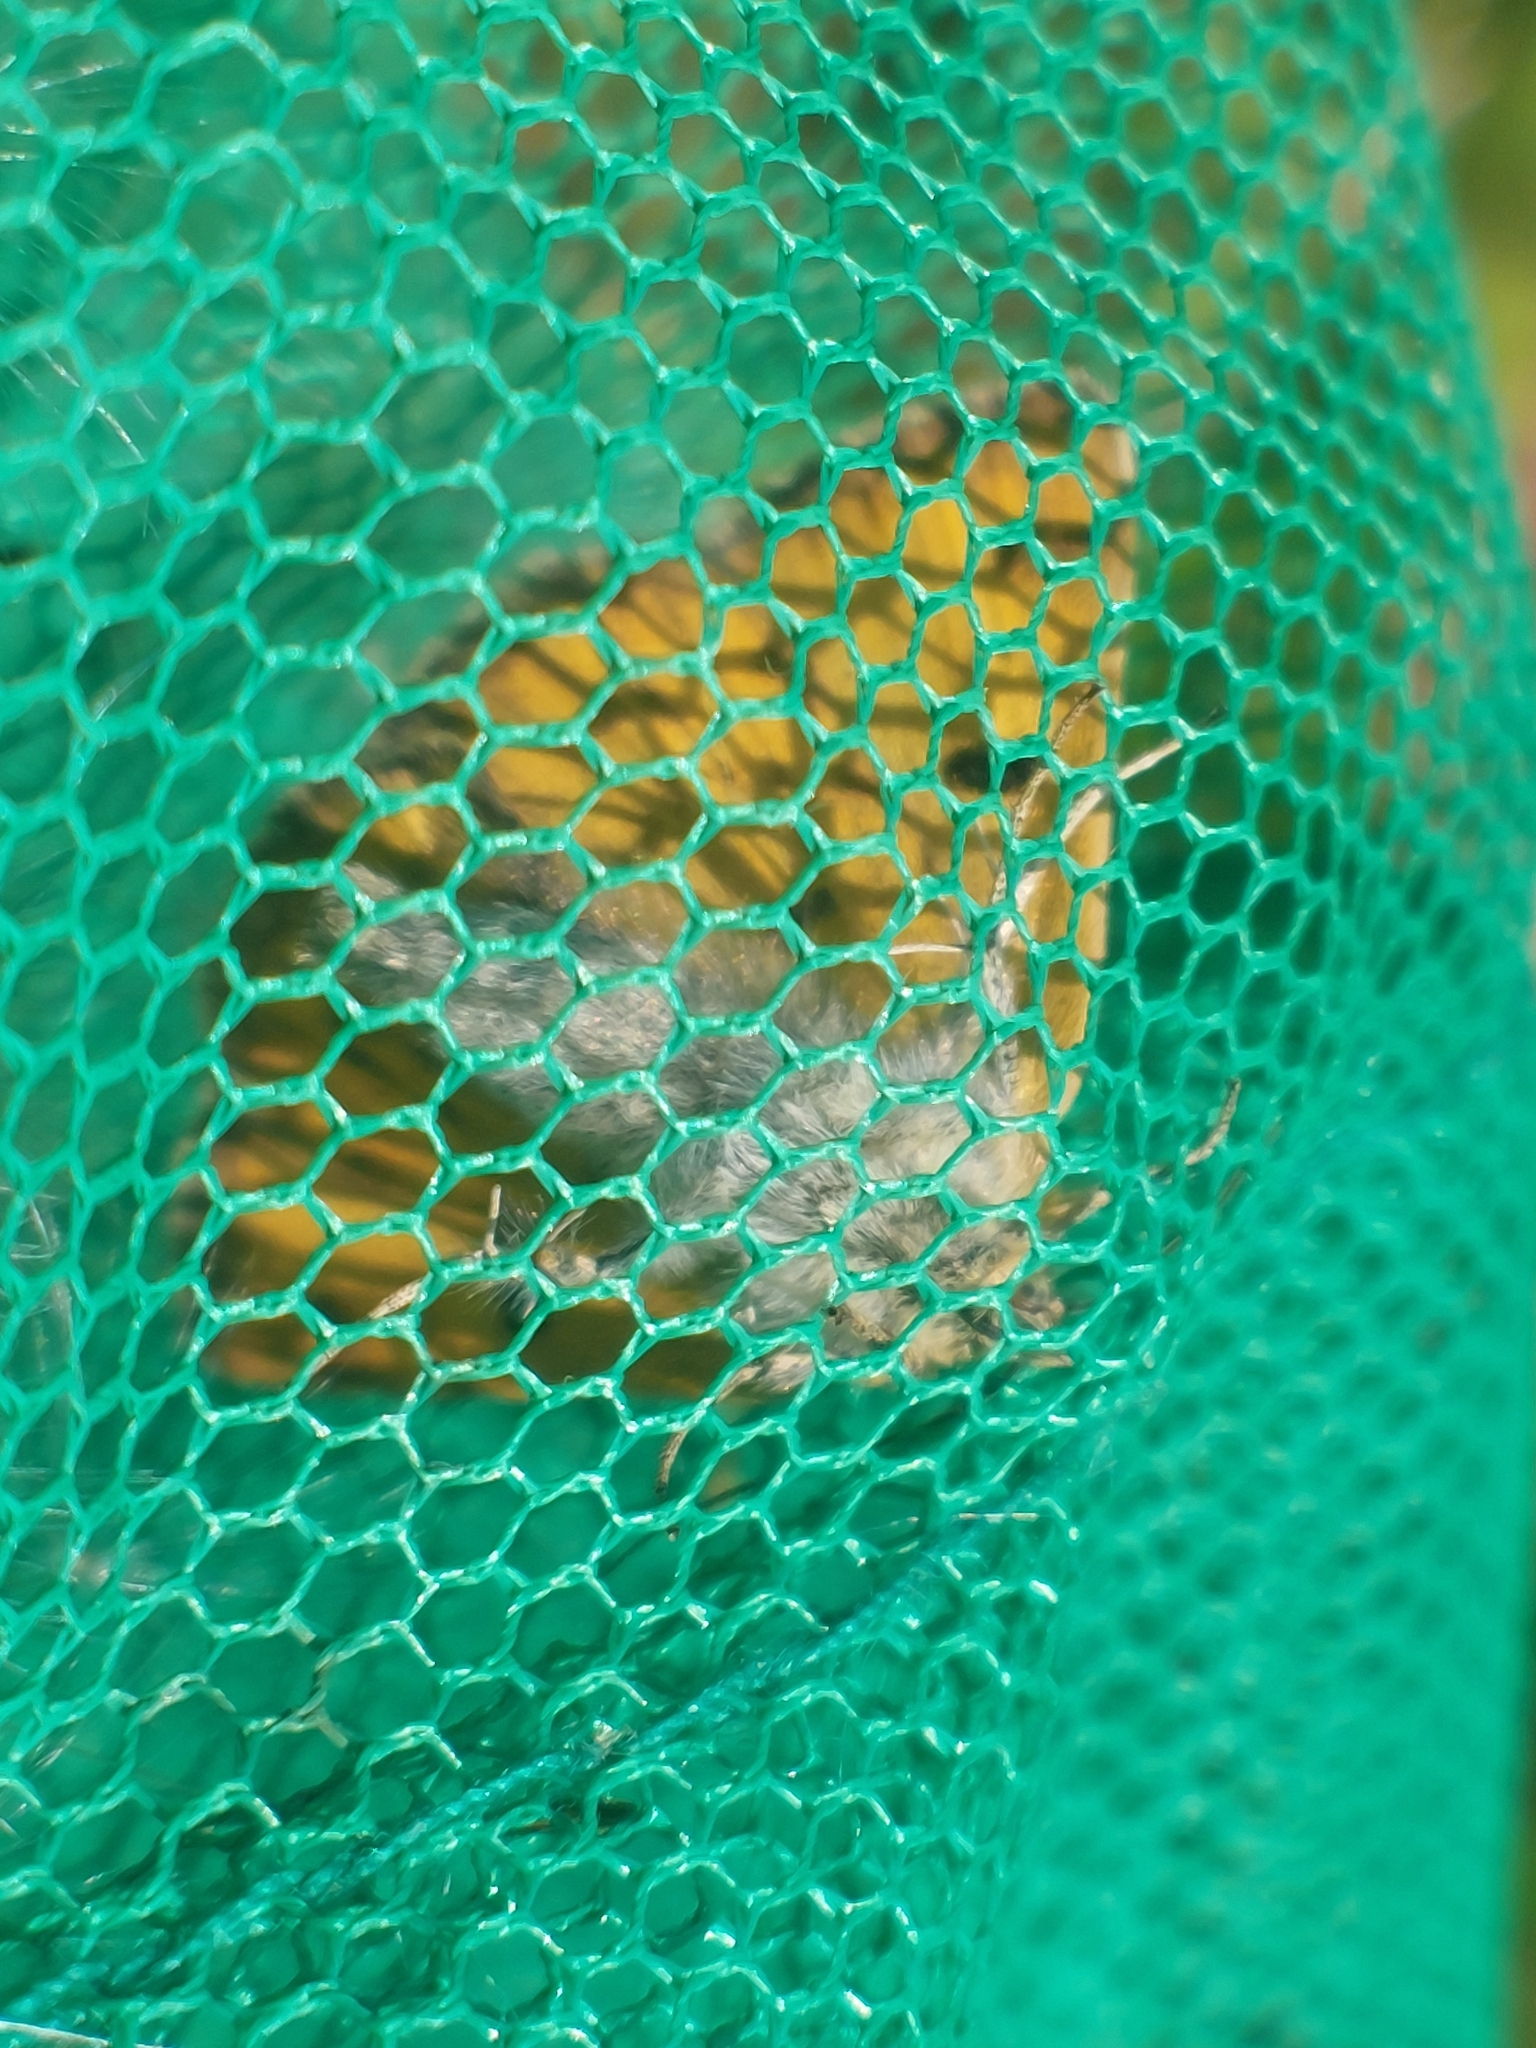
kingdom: Animalia
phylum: Arthropoda
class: Insecta
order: Lepidoptera
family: Erebidae
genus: Euclidia
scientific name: Euclidia glyphica
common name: Burnet companion
